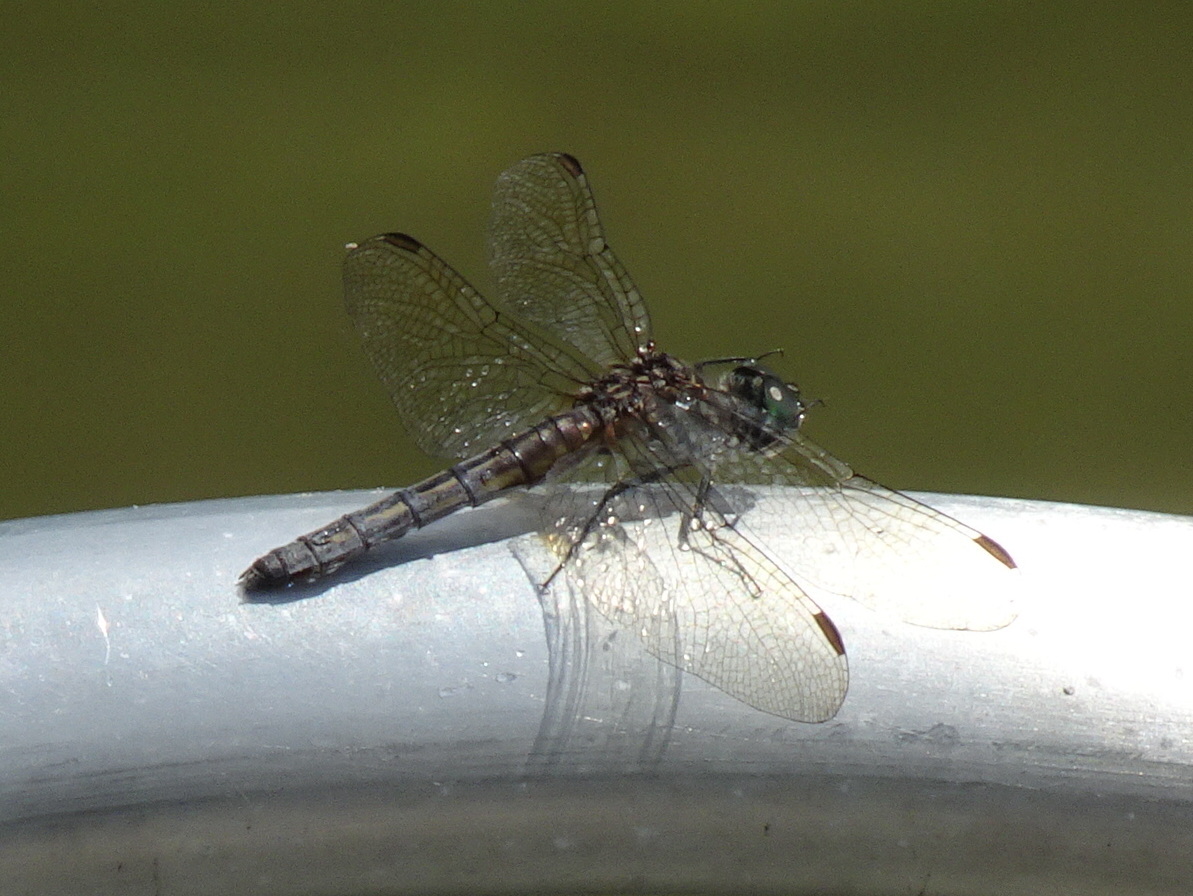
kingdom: Animalia
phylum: Arthropoda
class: Insecta
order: Odonata
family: Libellulidae
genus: Pachydiplax
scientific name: Pachydiplax longipennis
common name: Blue dasher
